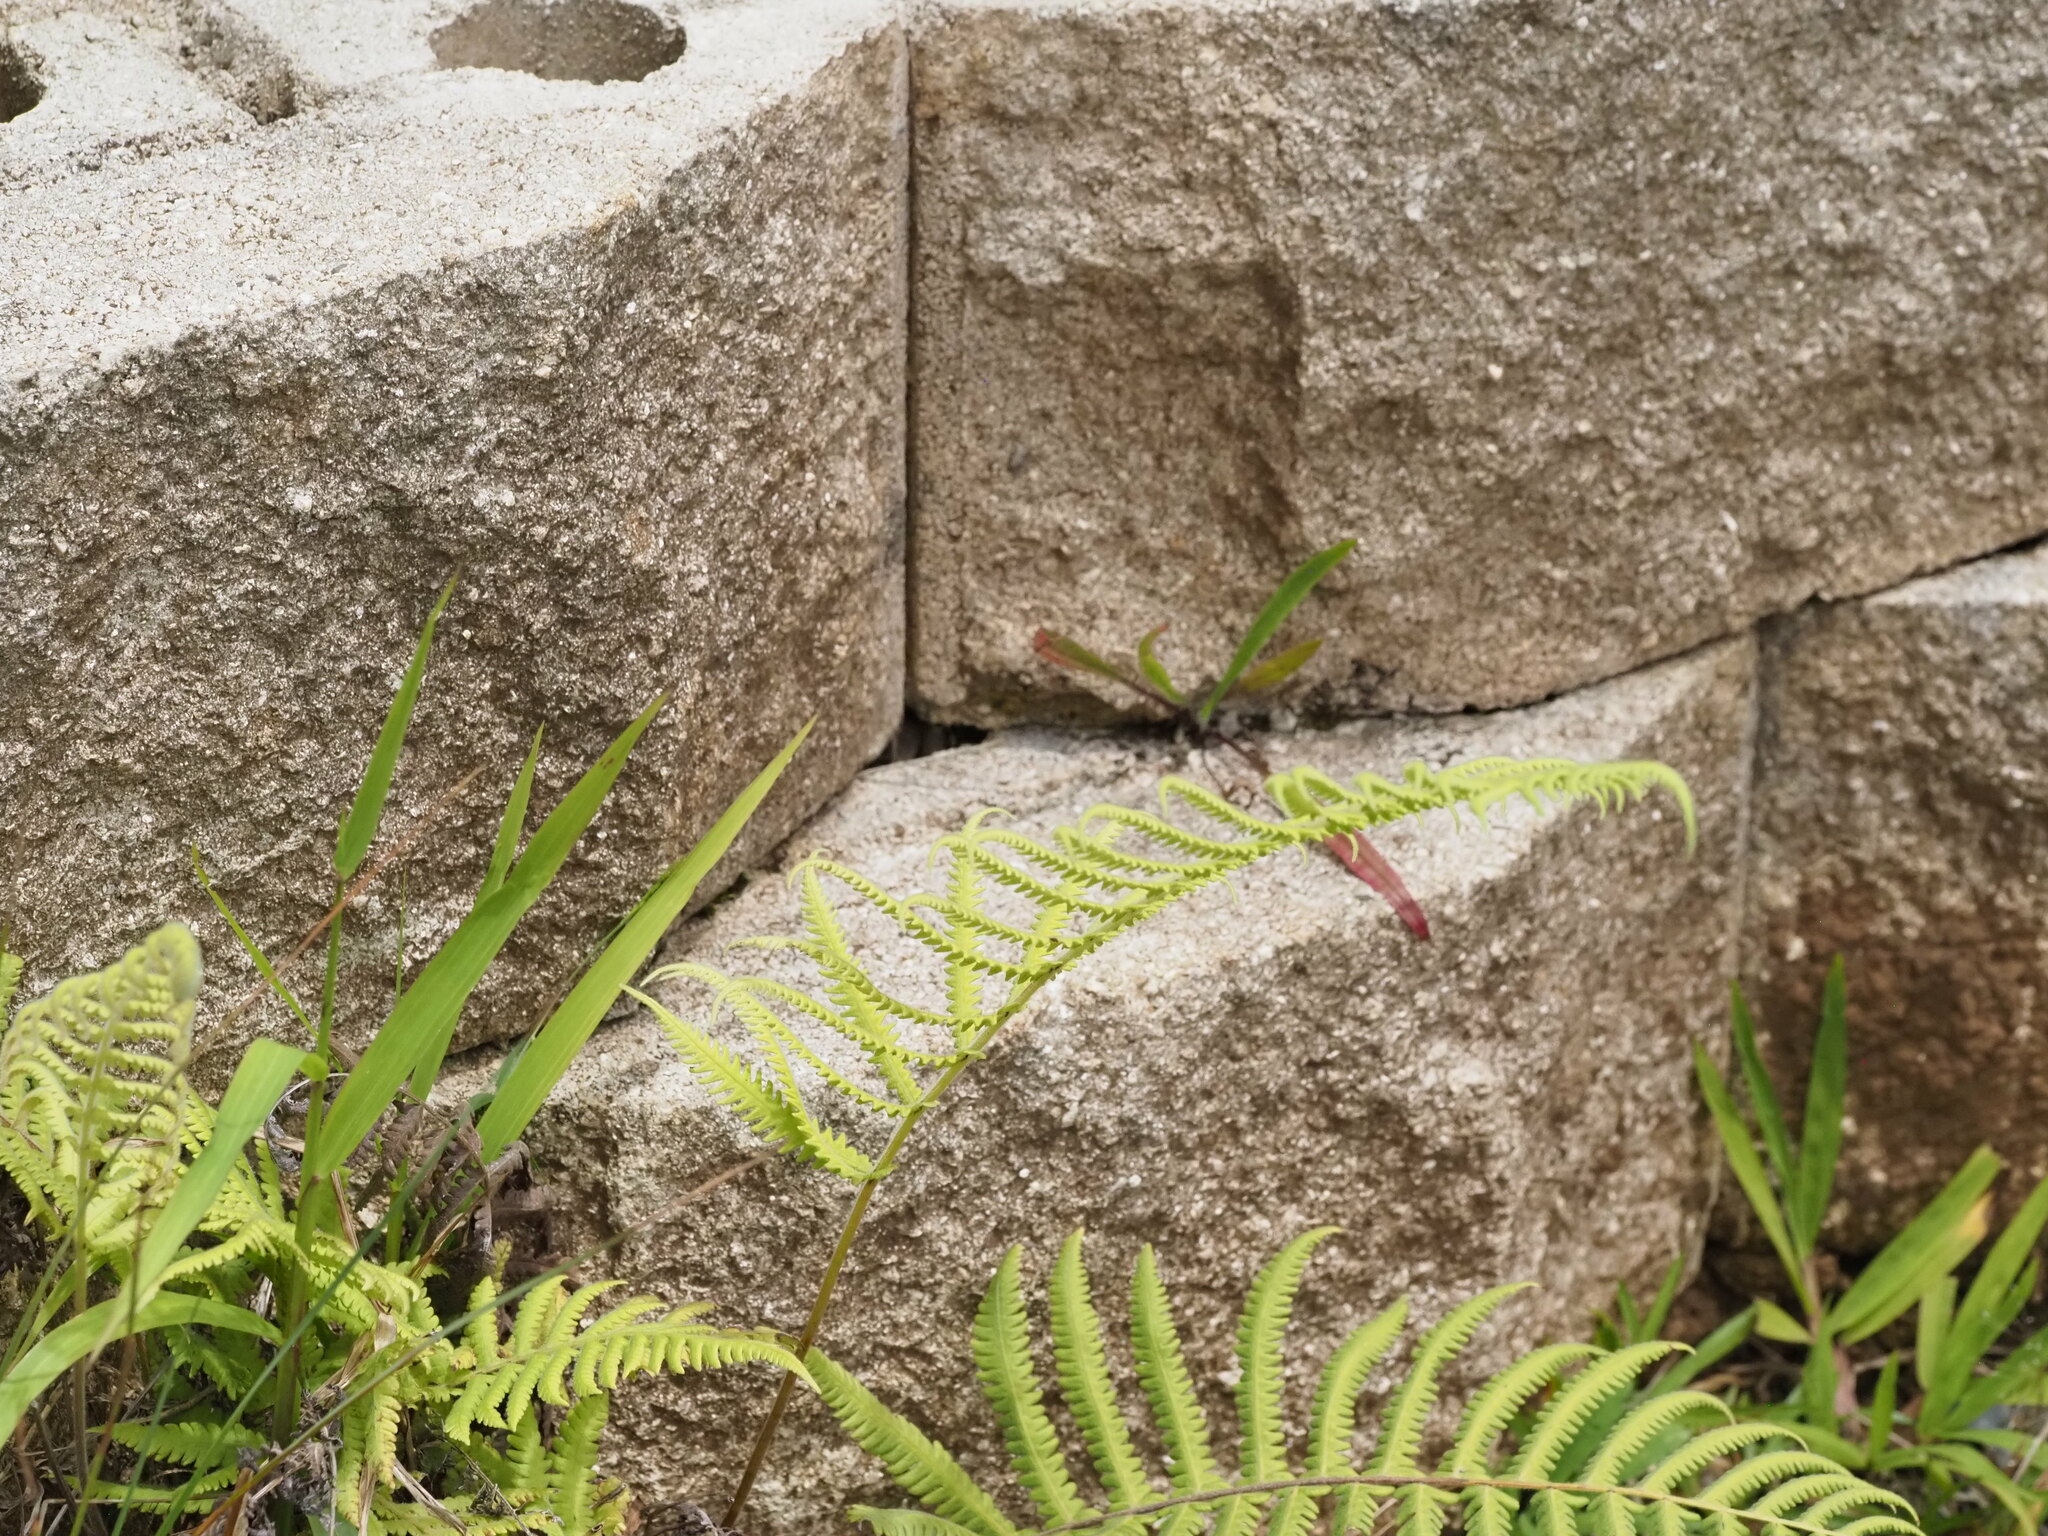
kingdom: Plantae
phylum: Tracheophyta
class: Polypodiopsida
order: Polypodiales
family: Thelypteridaceae
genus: Christella
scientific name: Christella parasitica
